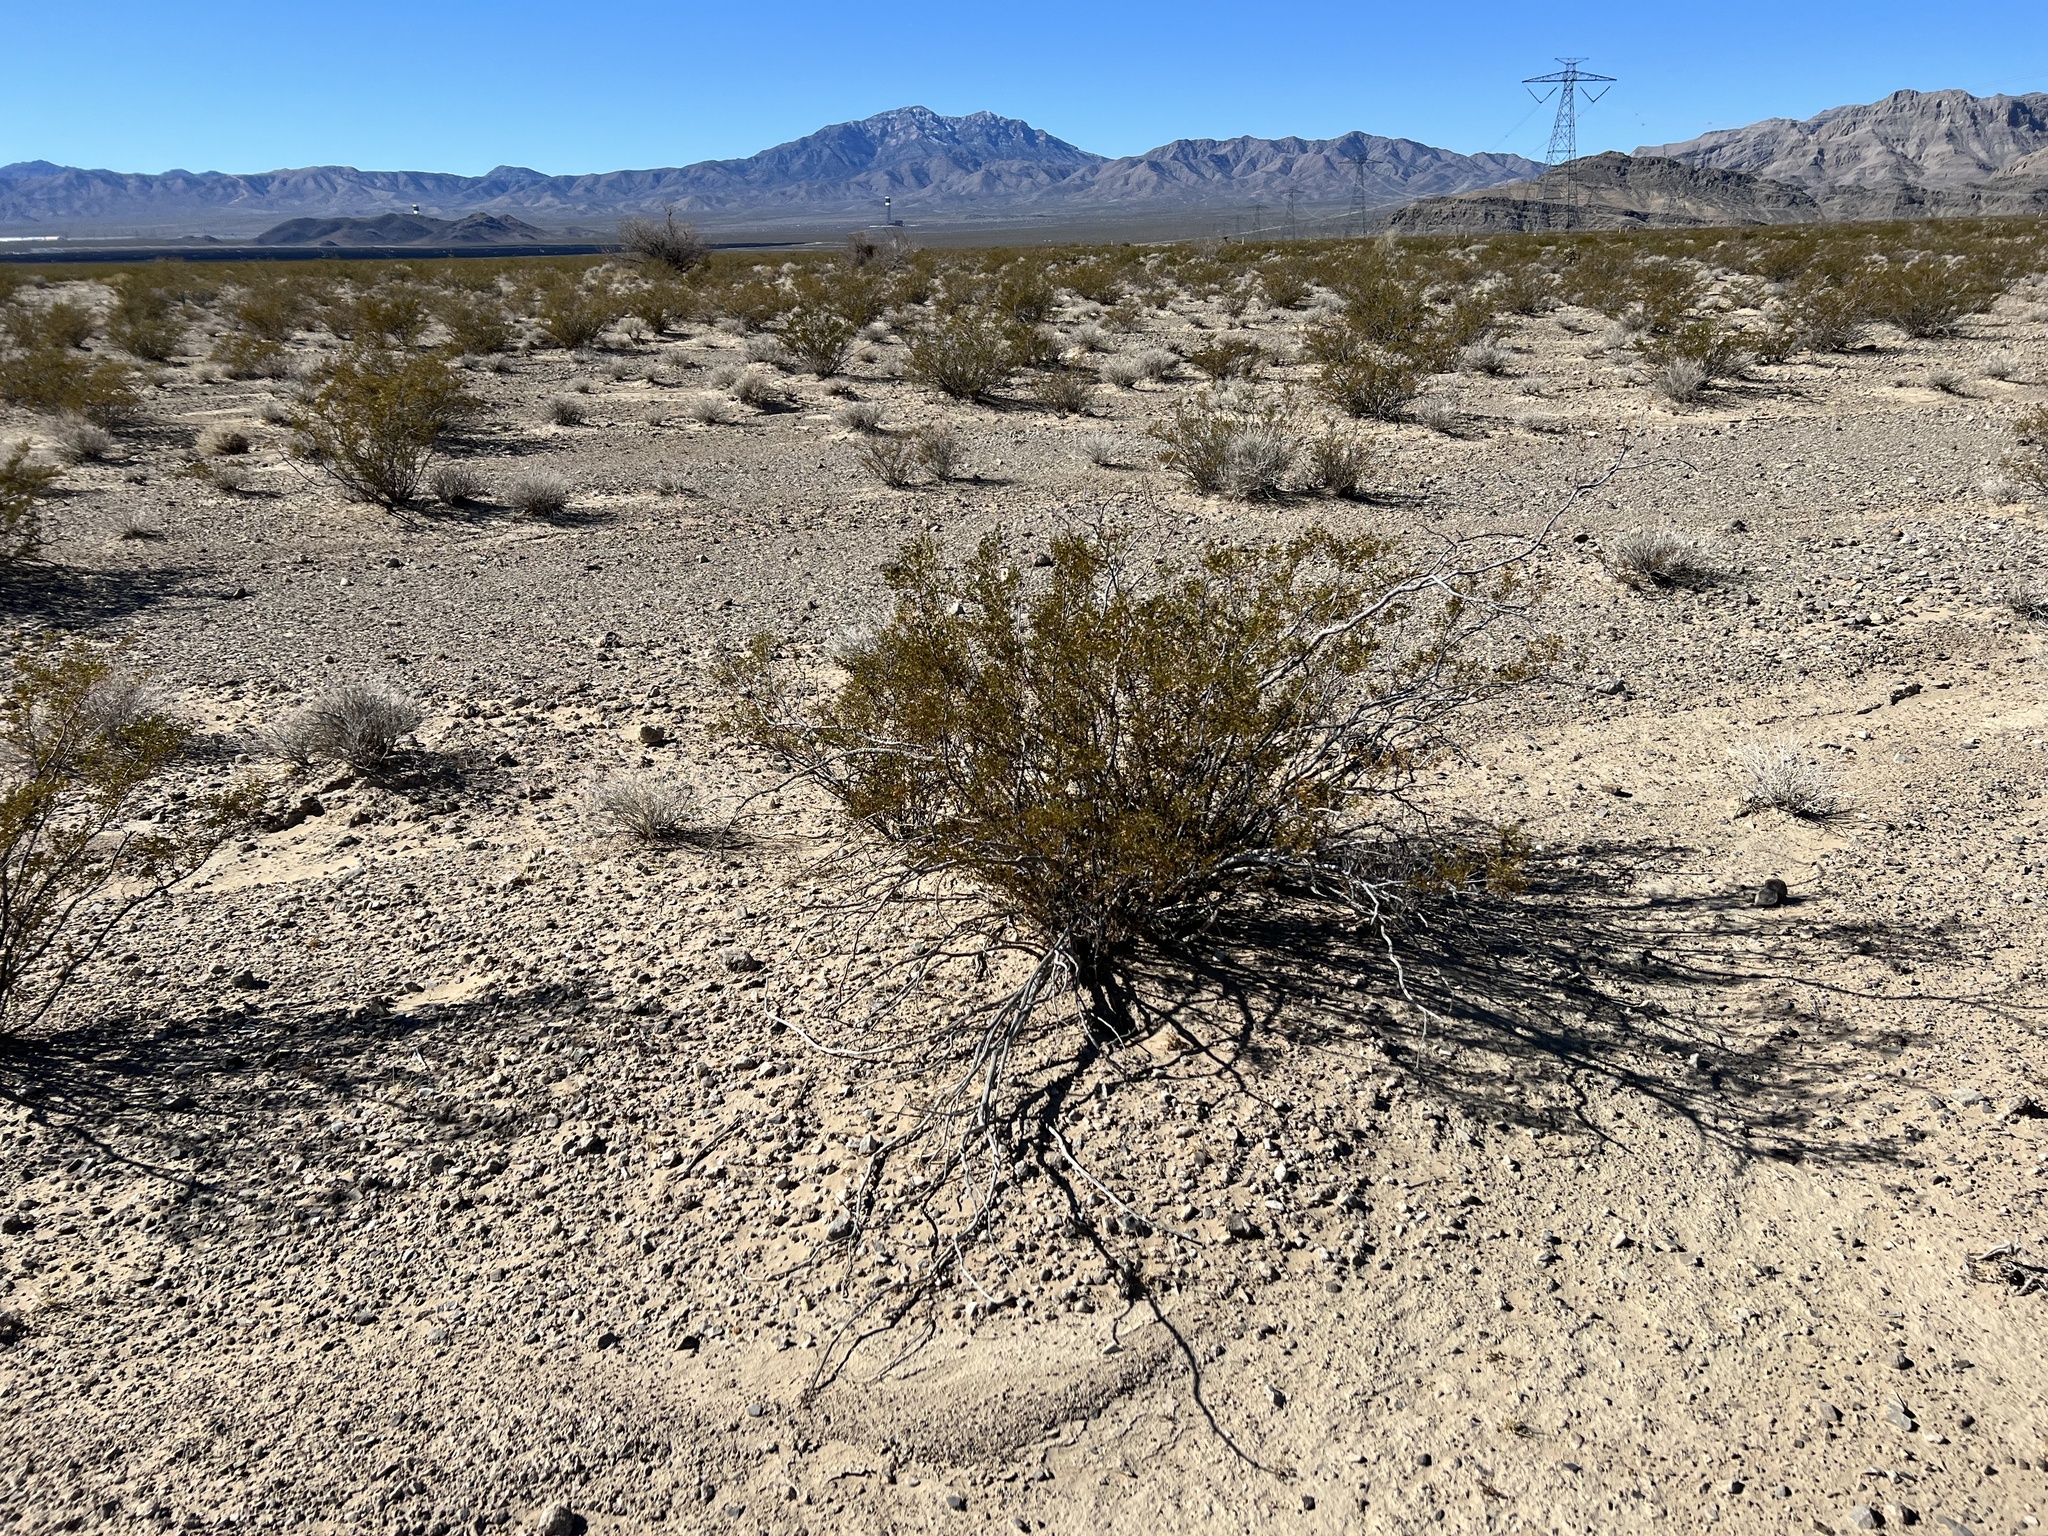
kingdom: Plantae
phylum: Tracheophyta
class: Magnoliopsida
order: Zygophyllales
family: Zygophyllaceae
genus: Larrea
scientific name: Larrea tridentata
